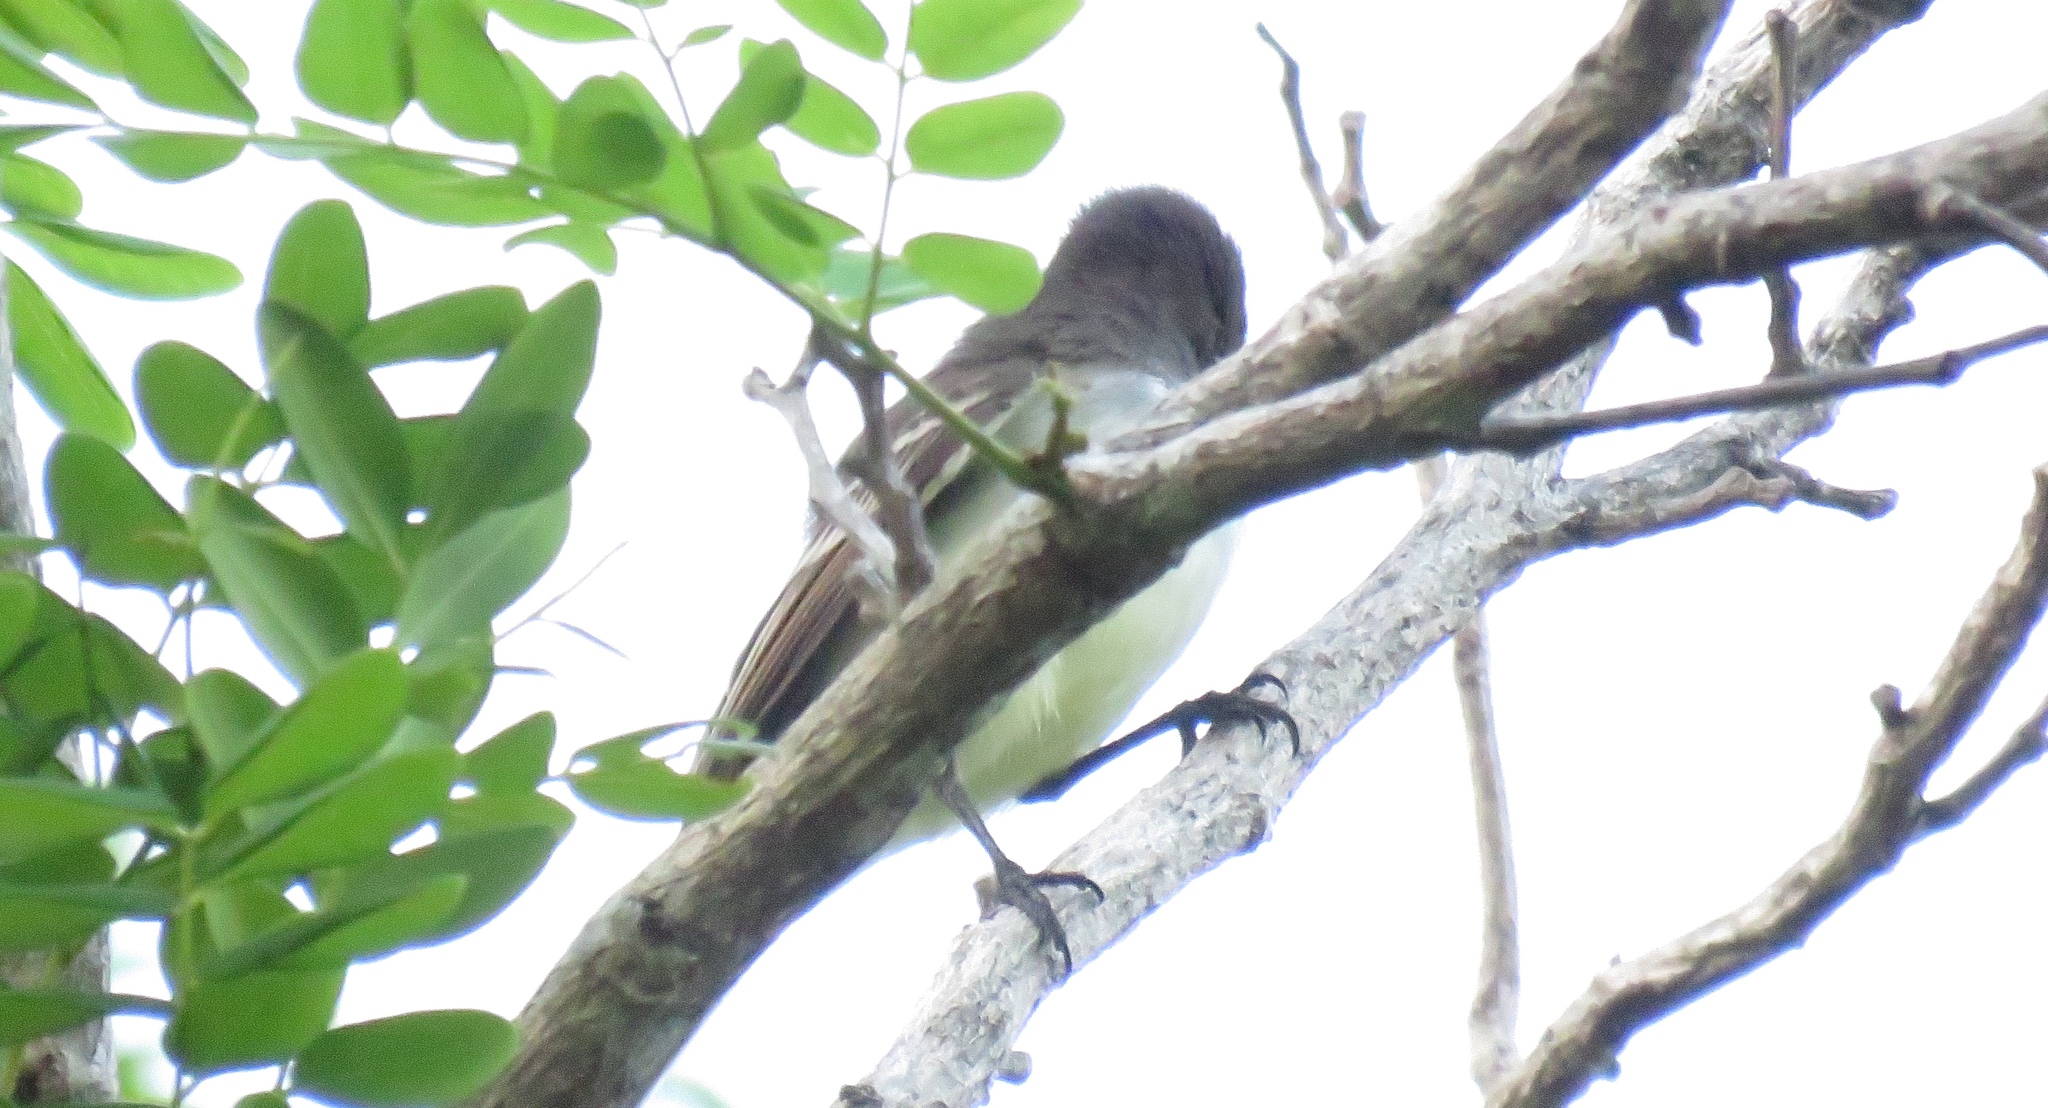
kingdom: Animalia
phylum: Chordata
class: Aves
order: Passeriformes
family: Tyrannidae
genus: Myiarchus
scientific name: Myiarchus stolidus
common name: Stolid flycatcher
